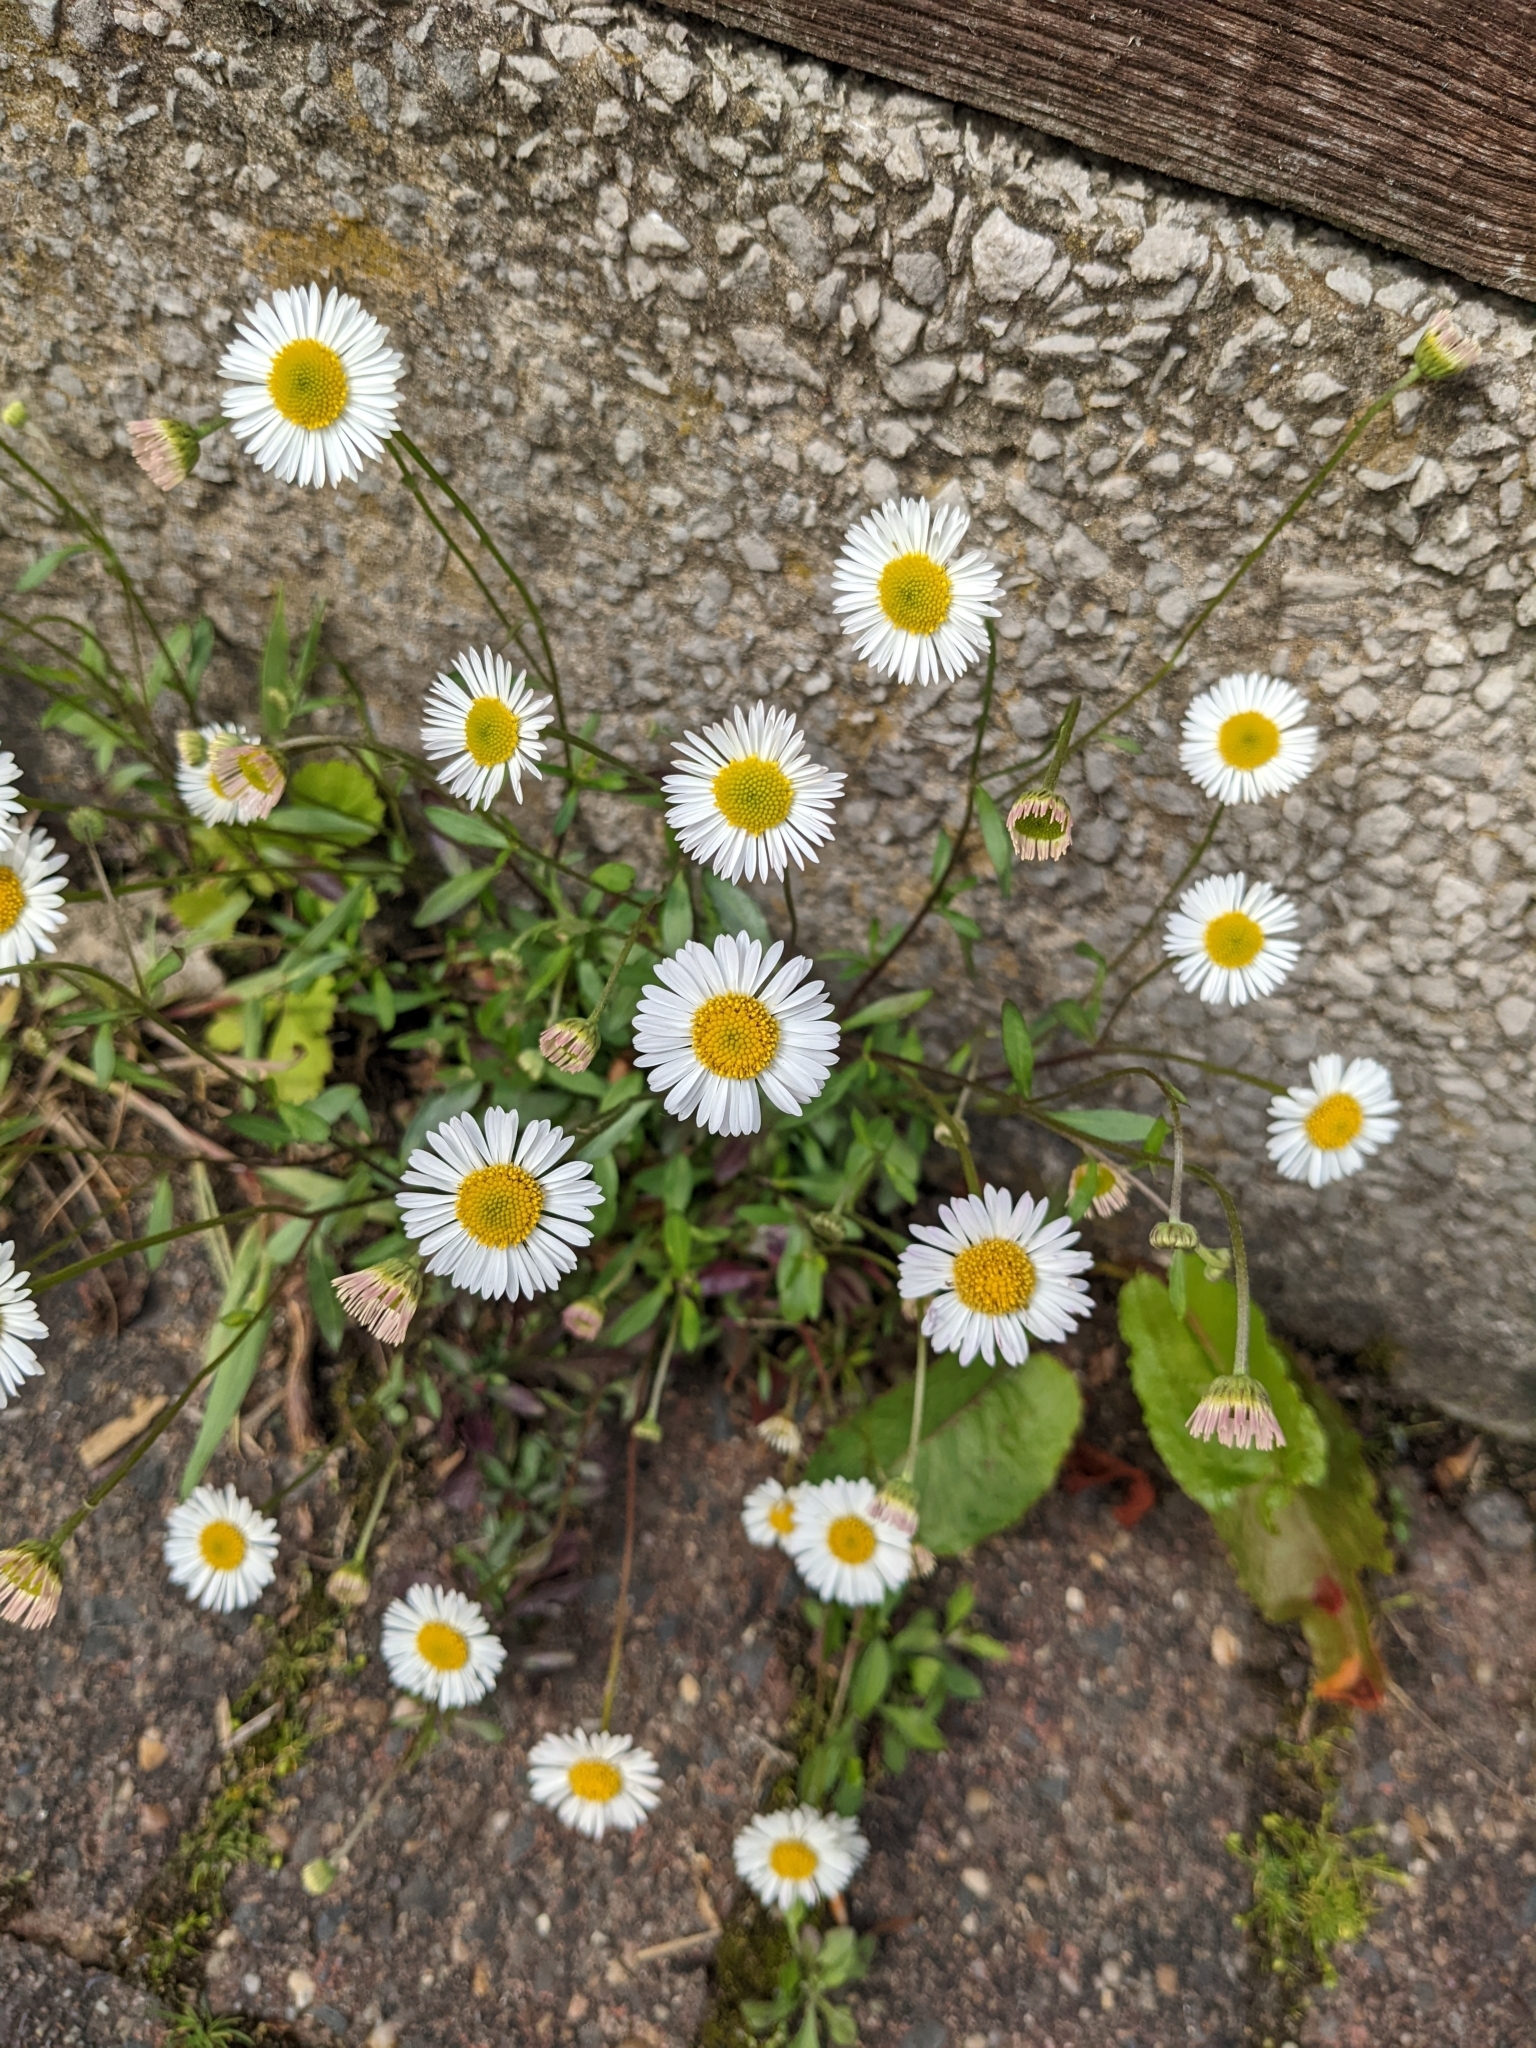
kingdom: Plantae
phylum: Tracheophyta
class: Magnoliopsida
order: Asterales
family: Asteraceae
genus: Erigeron
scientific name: Erigeron karvinskianus
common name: Mexican fleabane
